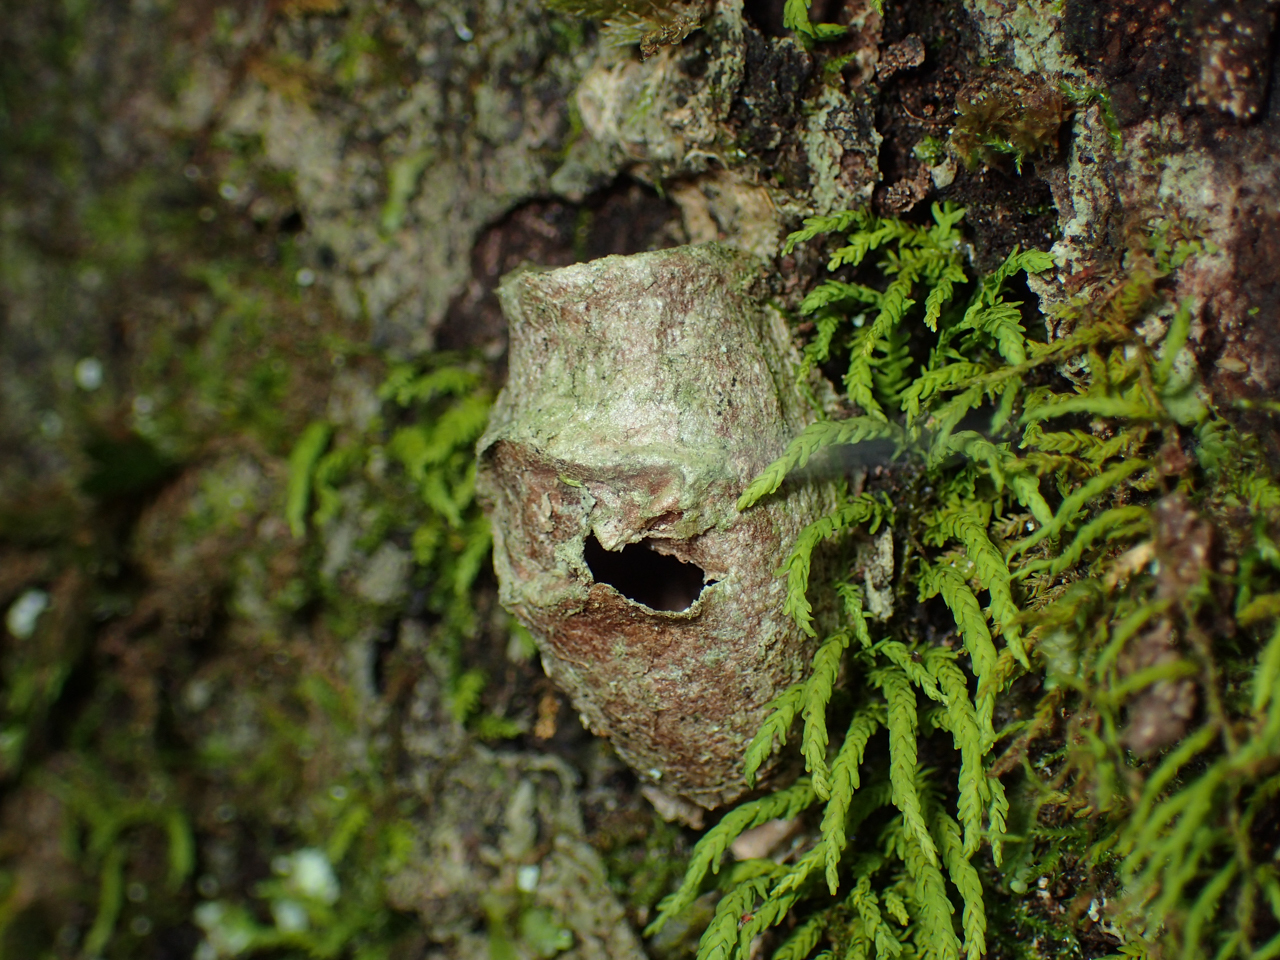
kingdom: Animalia
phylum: Arthropoda
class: Insecta
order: Lepidoptera
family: Megalopygidae
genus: Megalopyge
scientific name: Megalopyge
